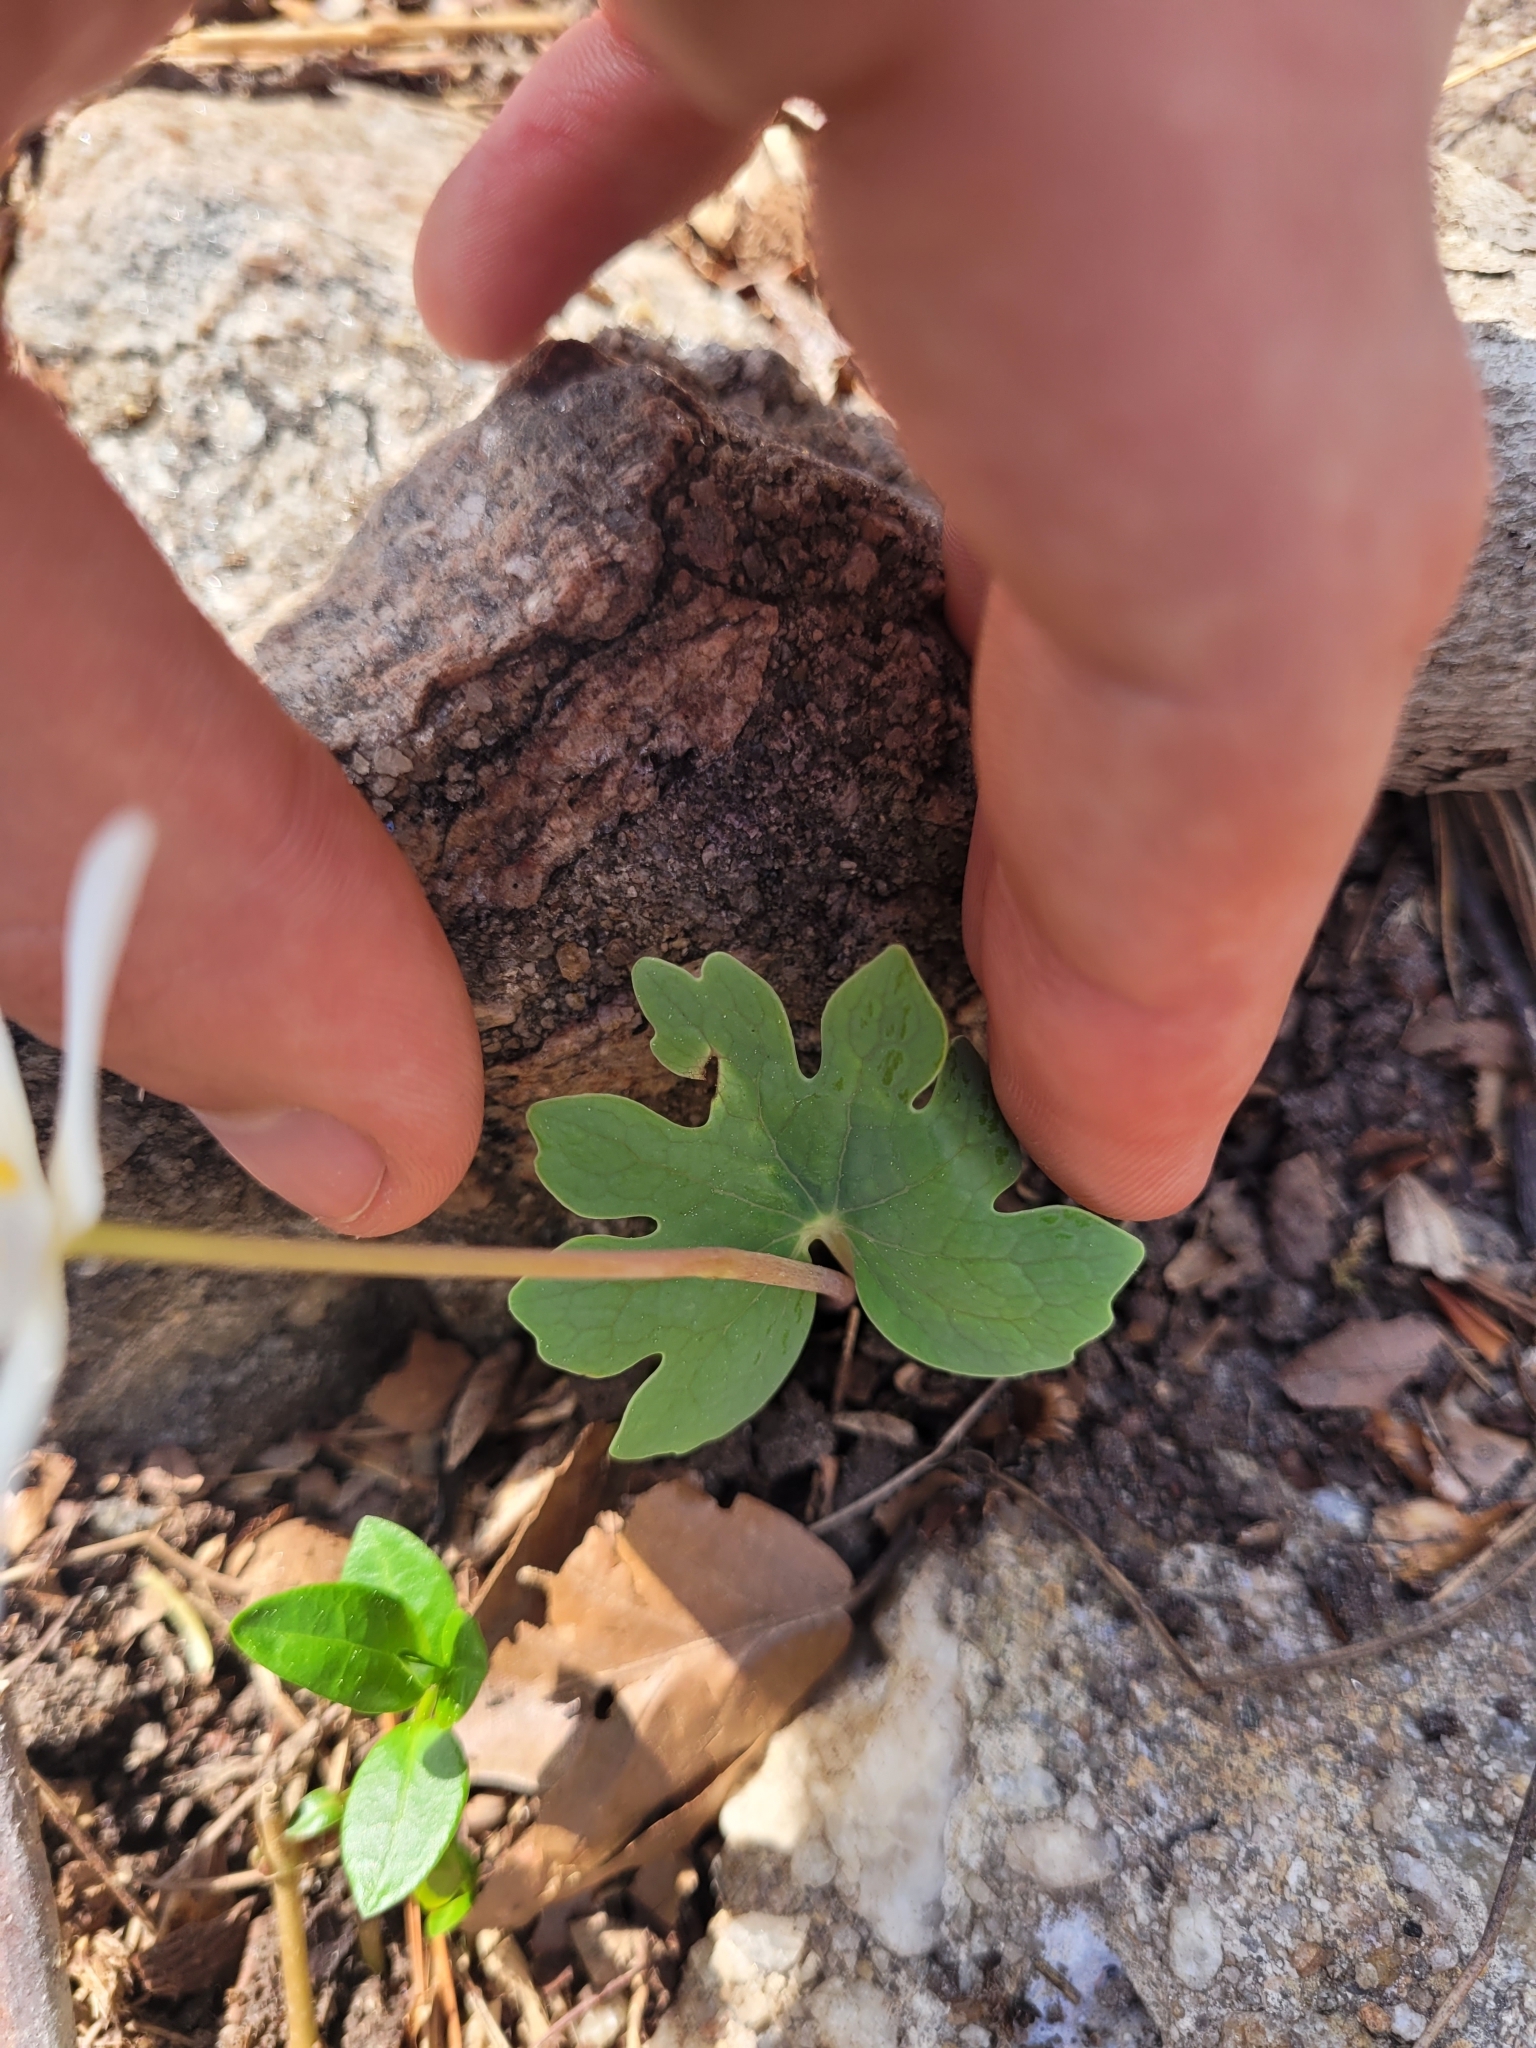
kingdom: Plantae
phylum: Tracheophyta
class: Magnoliopsida
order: Ranunculales
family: Papaveraceae
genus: Sanguinaria
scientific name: Sanguinaria canadensis
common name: Bloodroot
